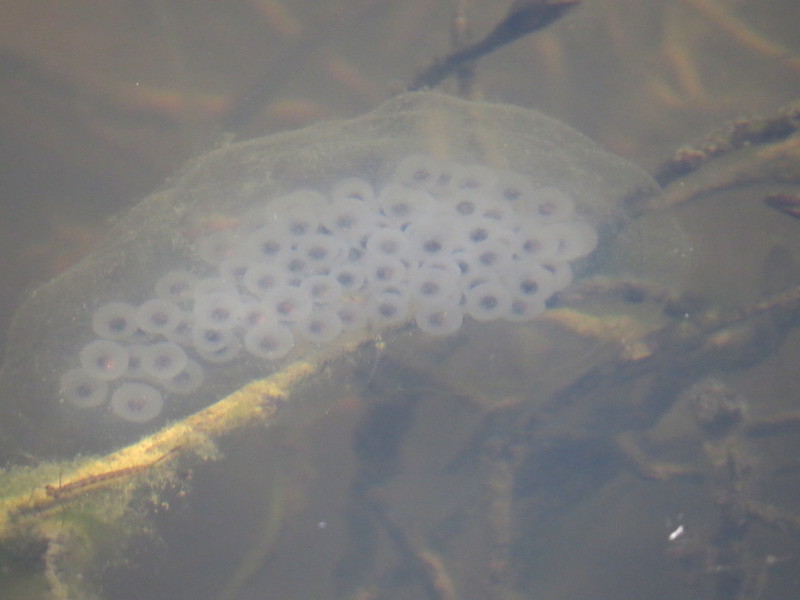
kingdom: Animalia
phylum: Chordata
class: Amphibia
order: Caudata
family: Ambystomatidae
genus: Ambystoma
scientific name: Ambystoma maculatum
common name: Spotted salamander
